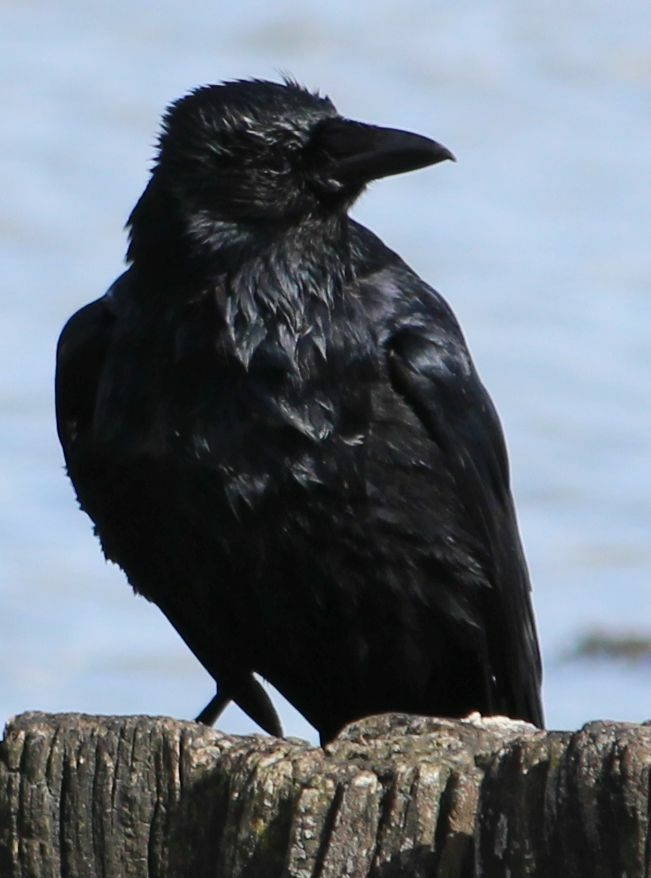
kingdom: Animalia
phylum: Chordata
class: Aves
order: Passeriformes
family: Corvidae
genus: Corvus
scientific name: Corvus corone
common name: Carrion crow
